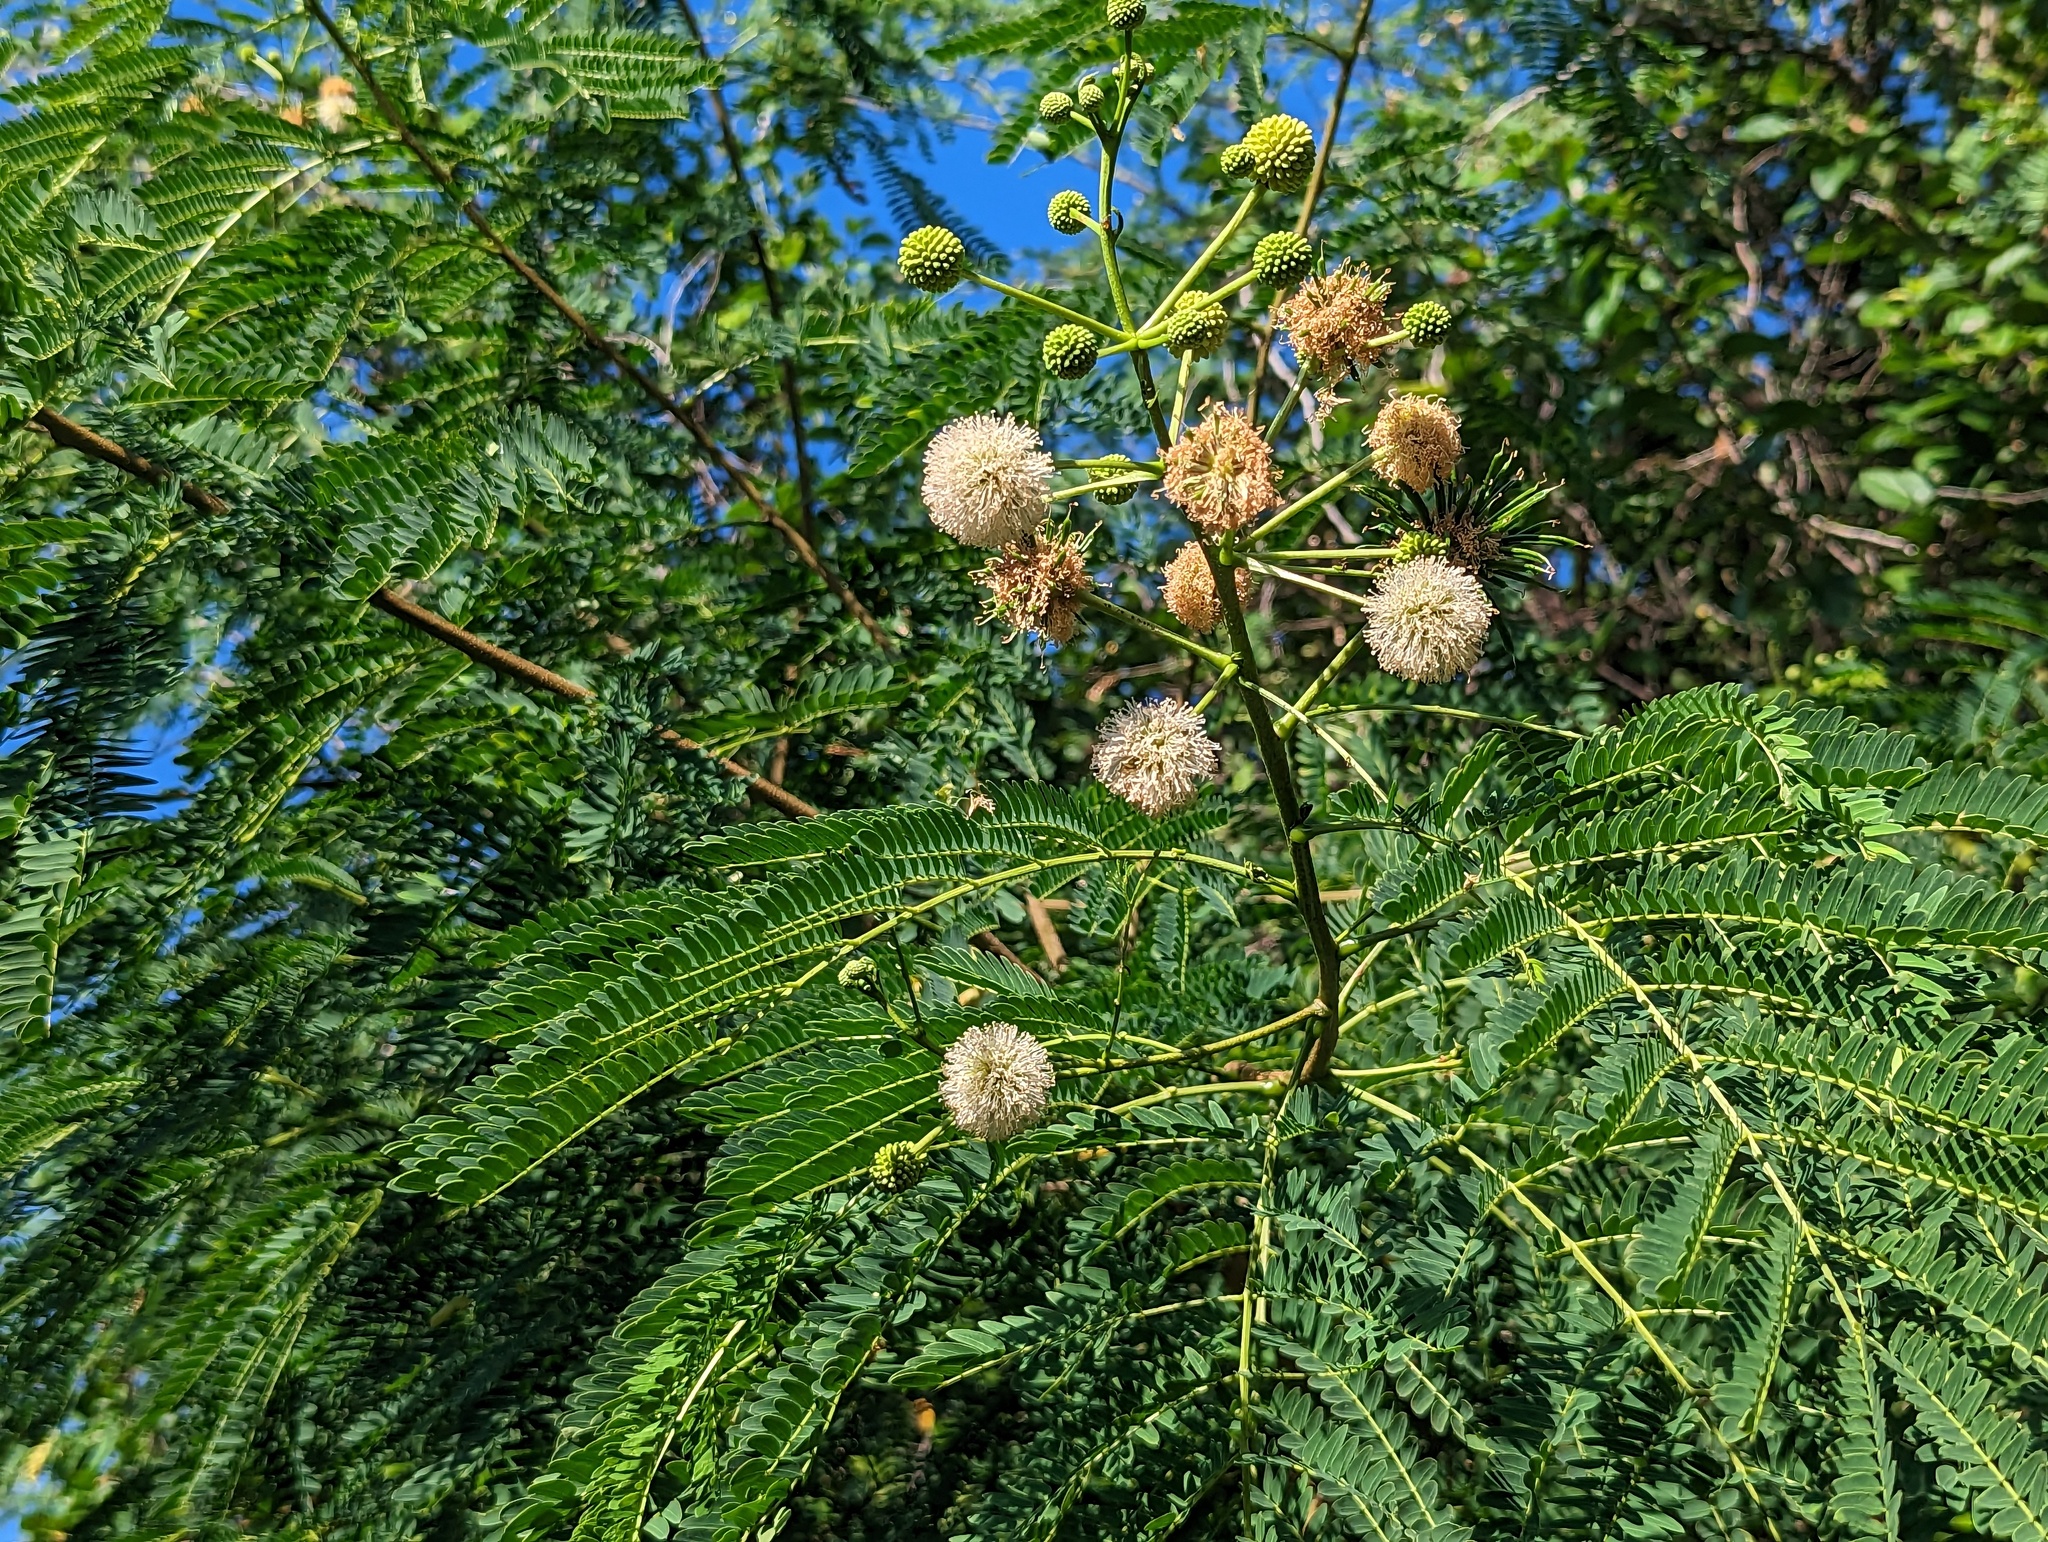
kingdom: Plantae
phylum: Tracheophyta
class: Magnoliopsida
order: Fabales
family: Fabaceae
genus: Leucaena
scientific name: Leucaena leucocephala
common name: White leadtree
